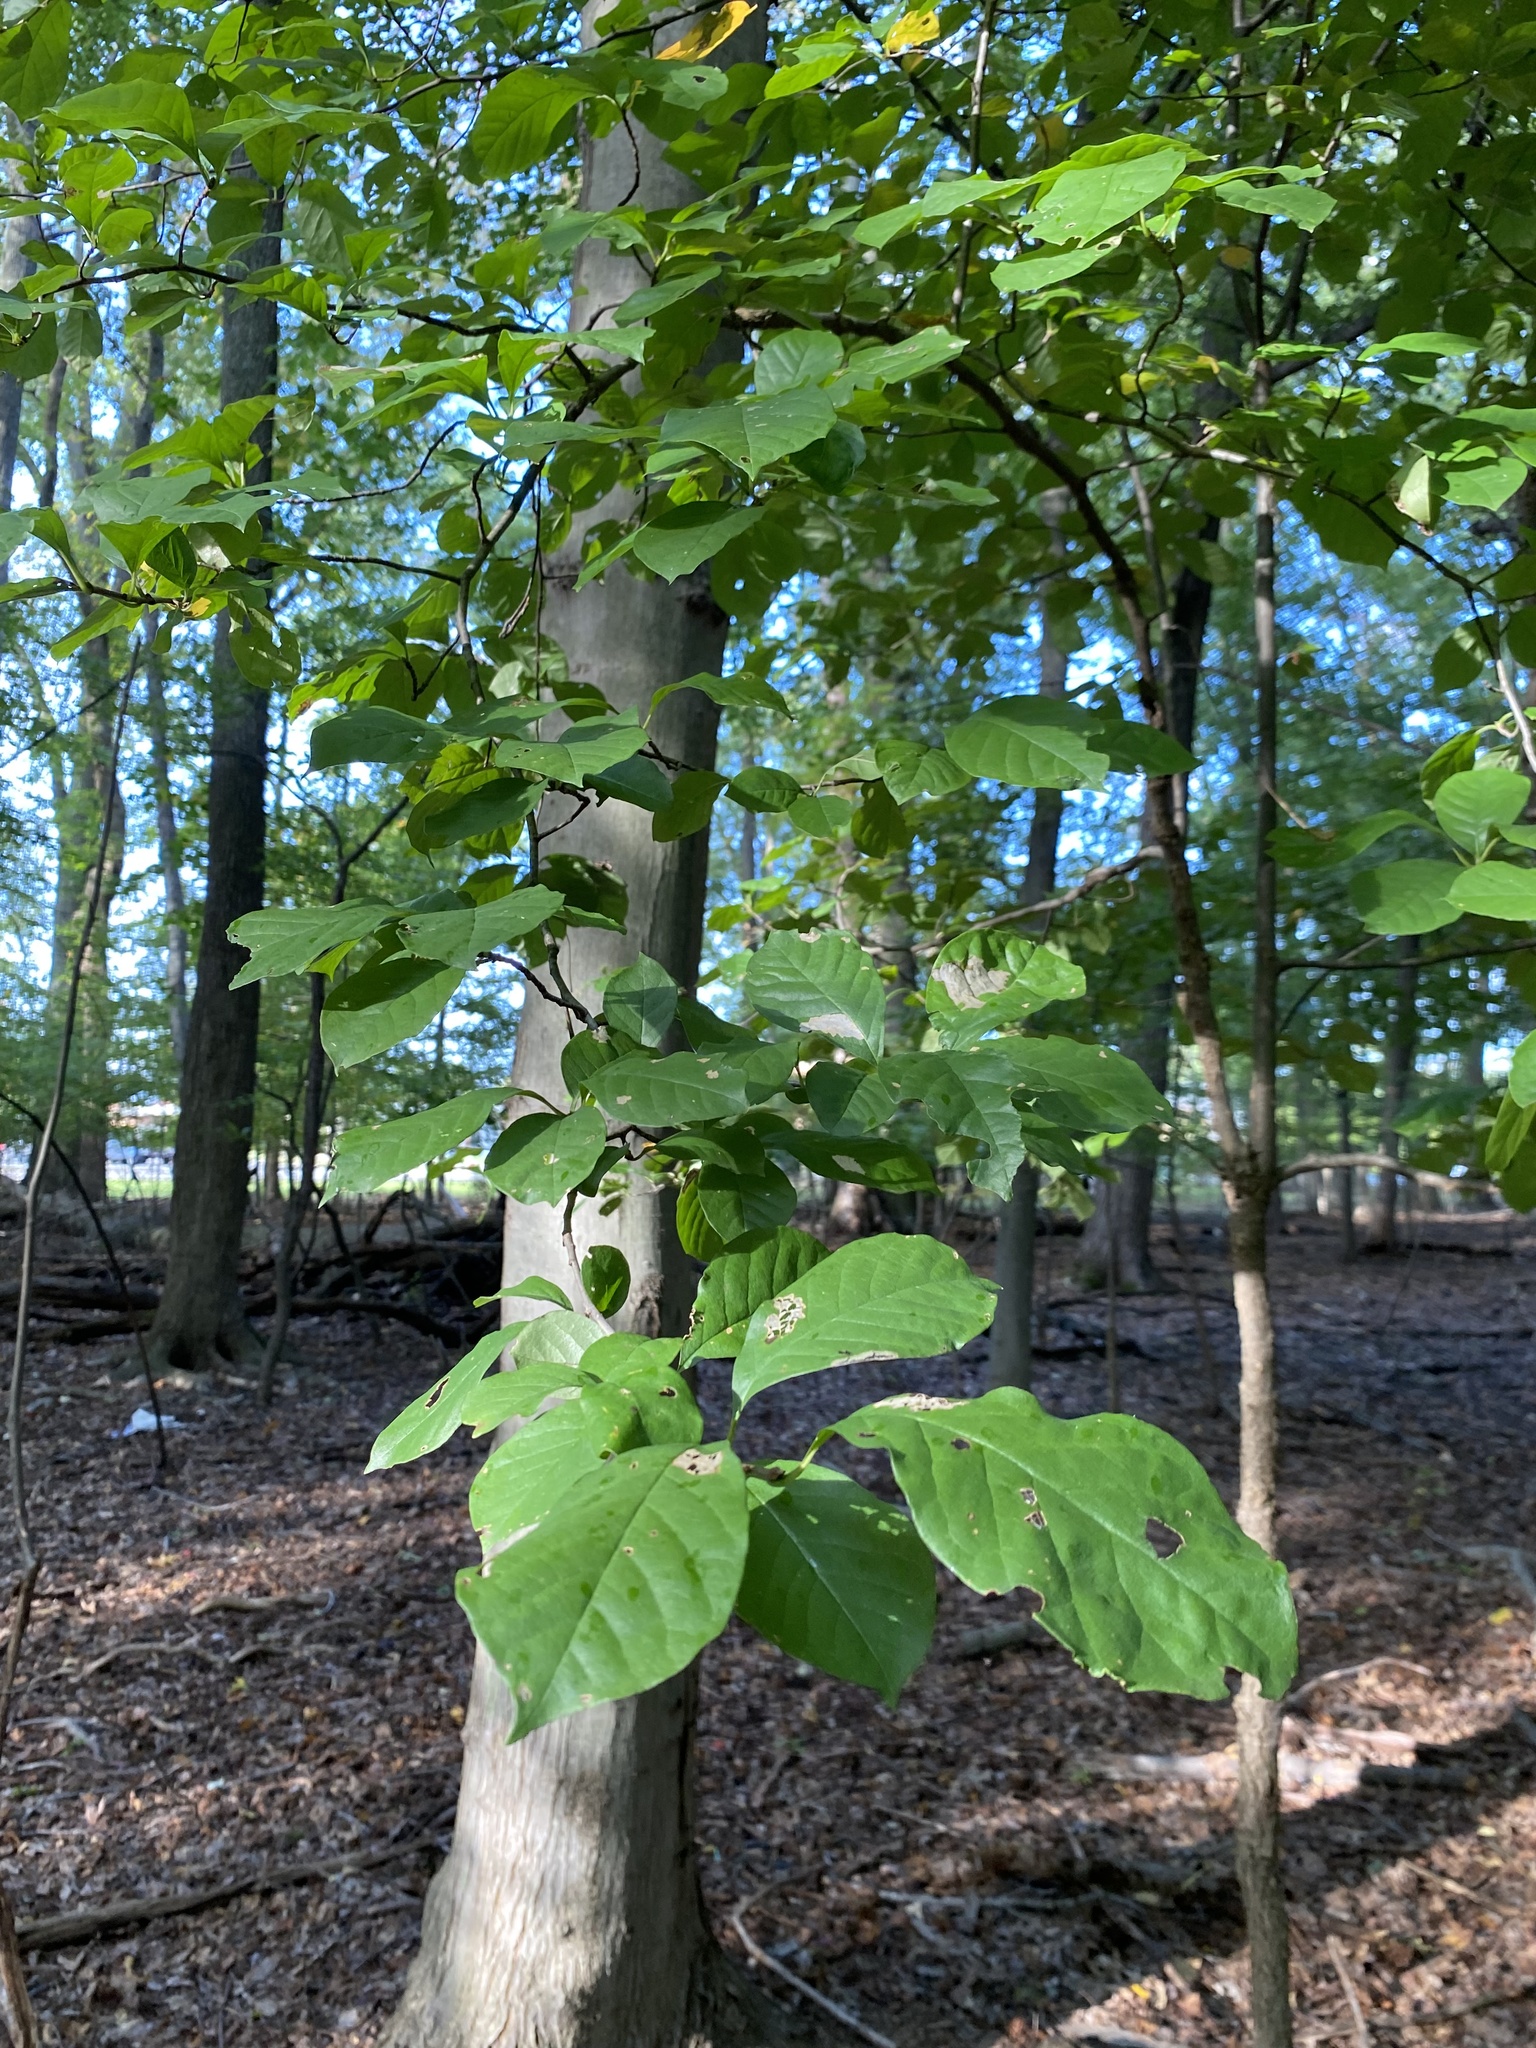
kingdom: Plantae
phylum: Tracheophyta
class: Magnoliopsida
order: Cornales
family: Nyssaceae
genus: Nyssa
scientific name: Nyssa sylvatica
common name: Black tupelo
